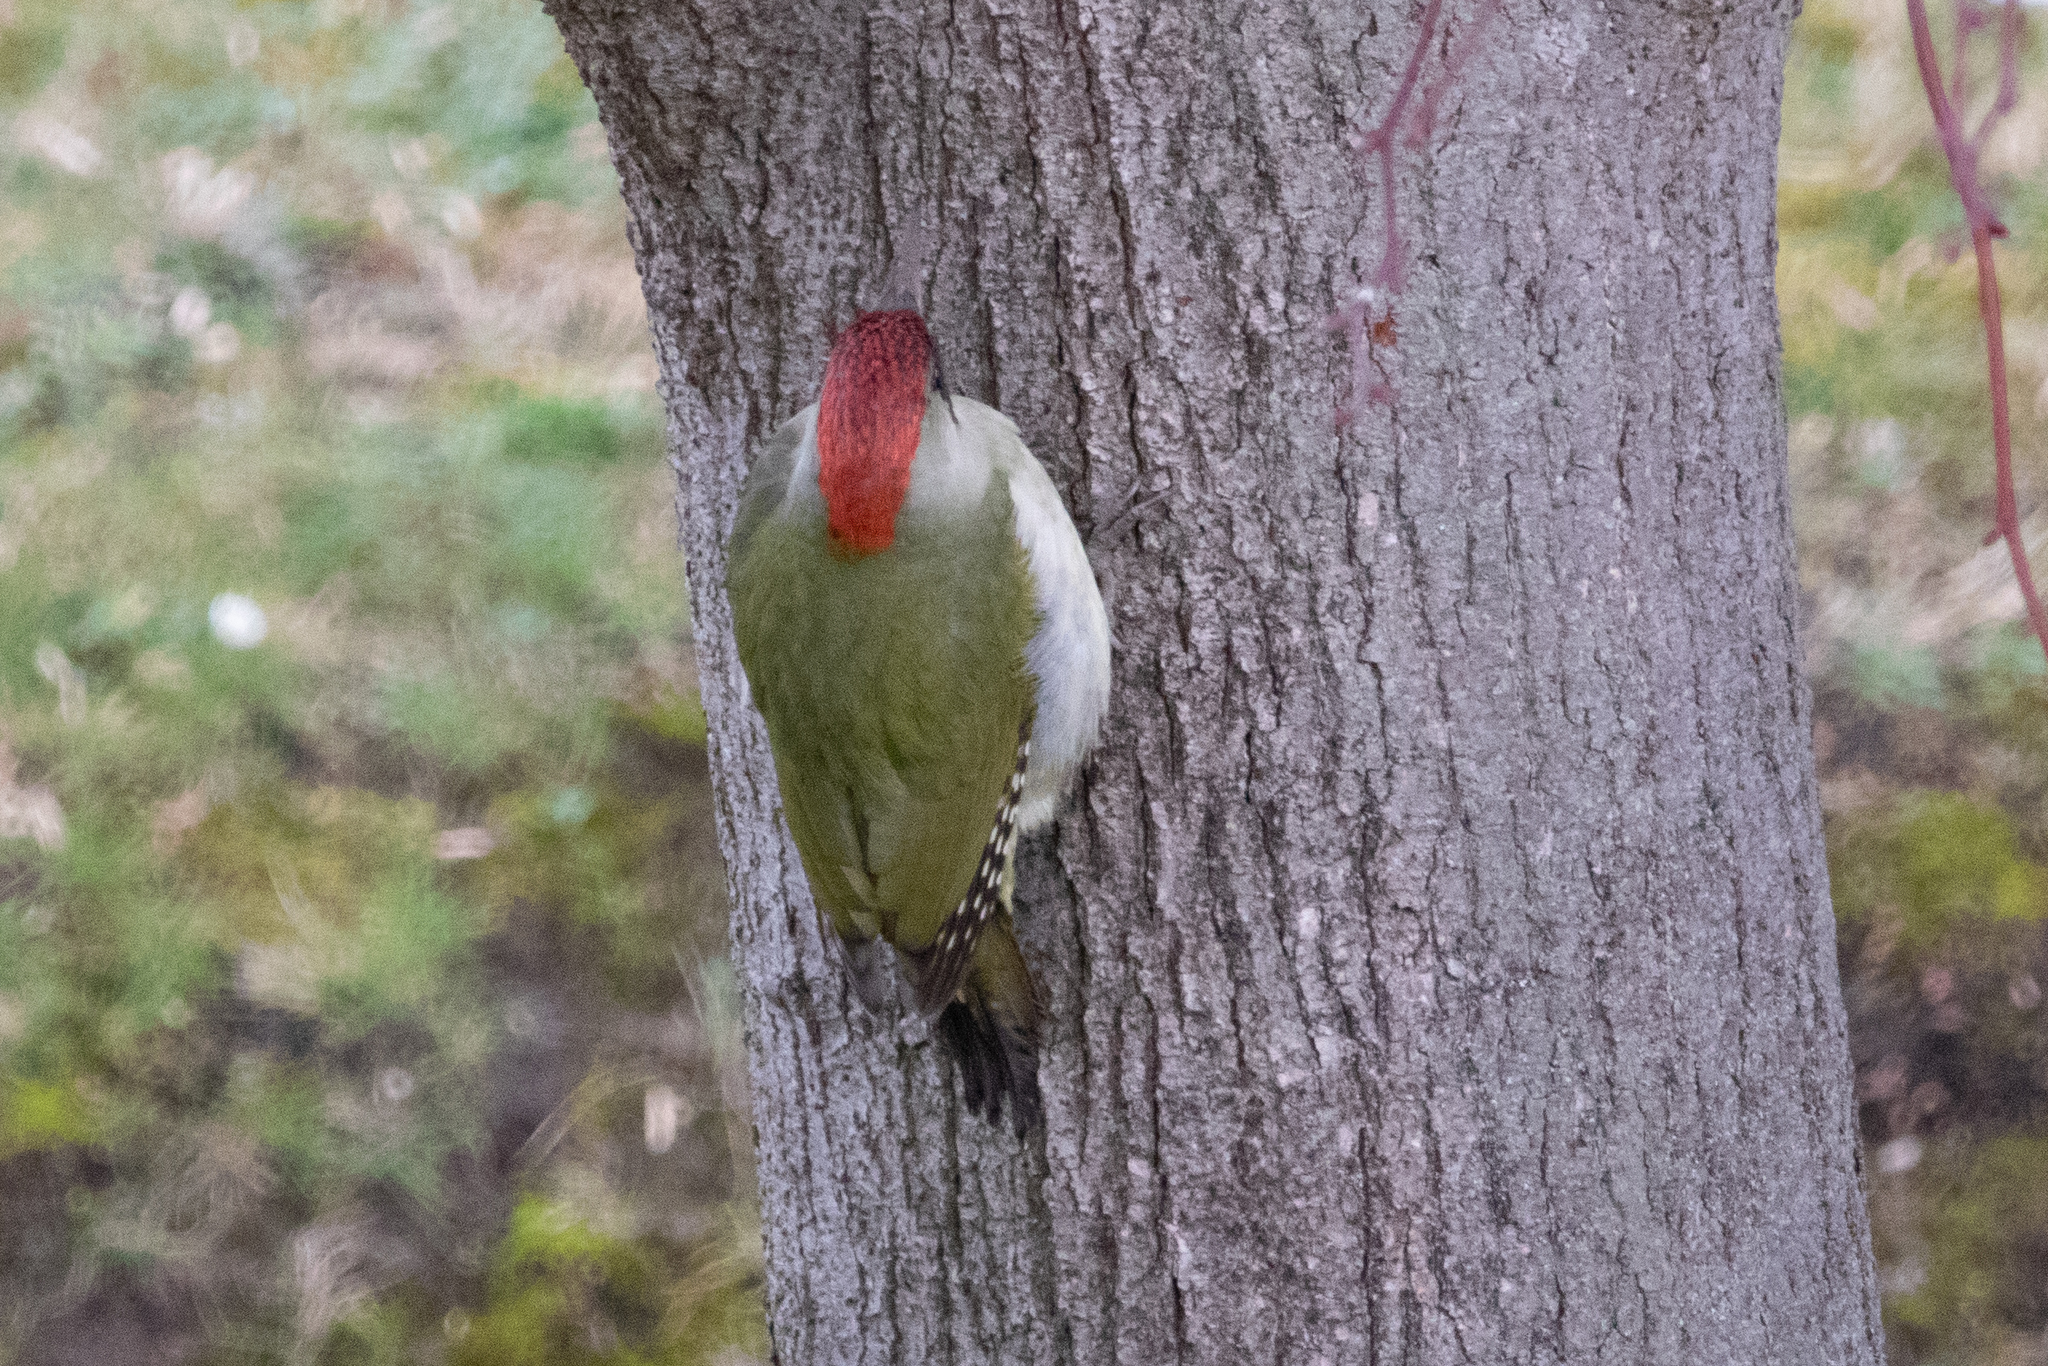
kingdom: Animalia
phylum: Chordata
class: Aves
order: Piciformes
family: Picidae
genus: Picus
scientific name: Picus viridis
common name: European green woodpecker
